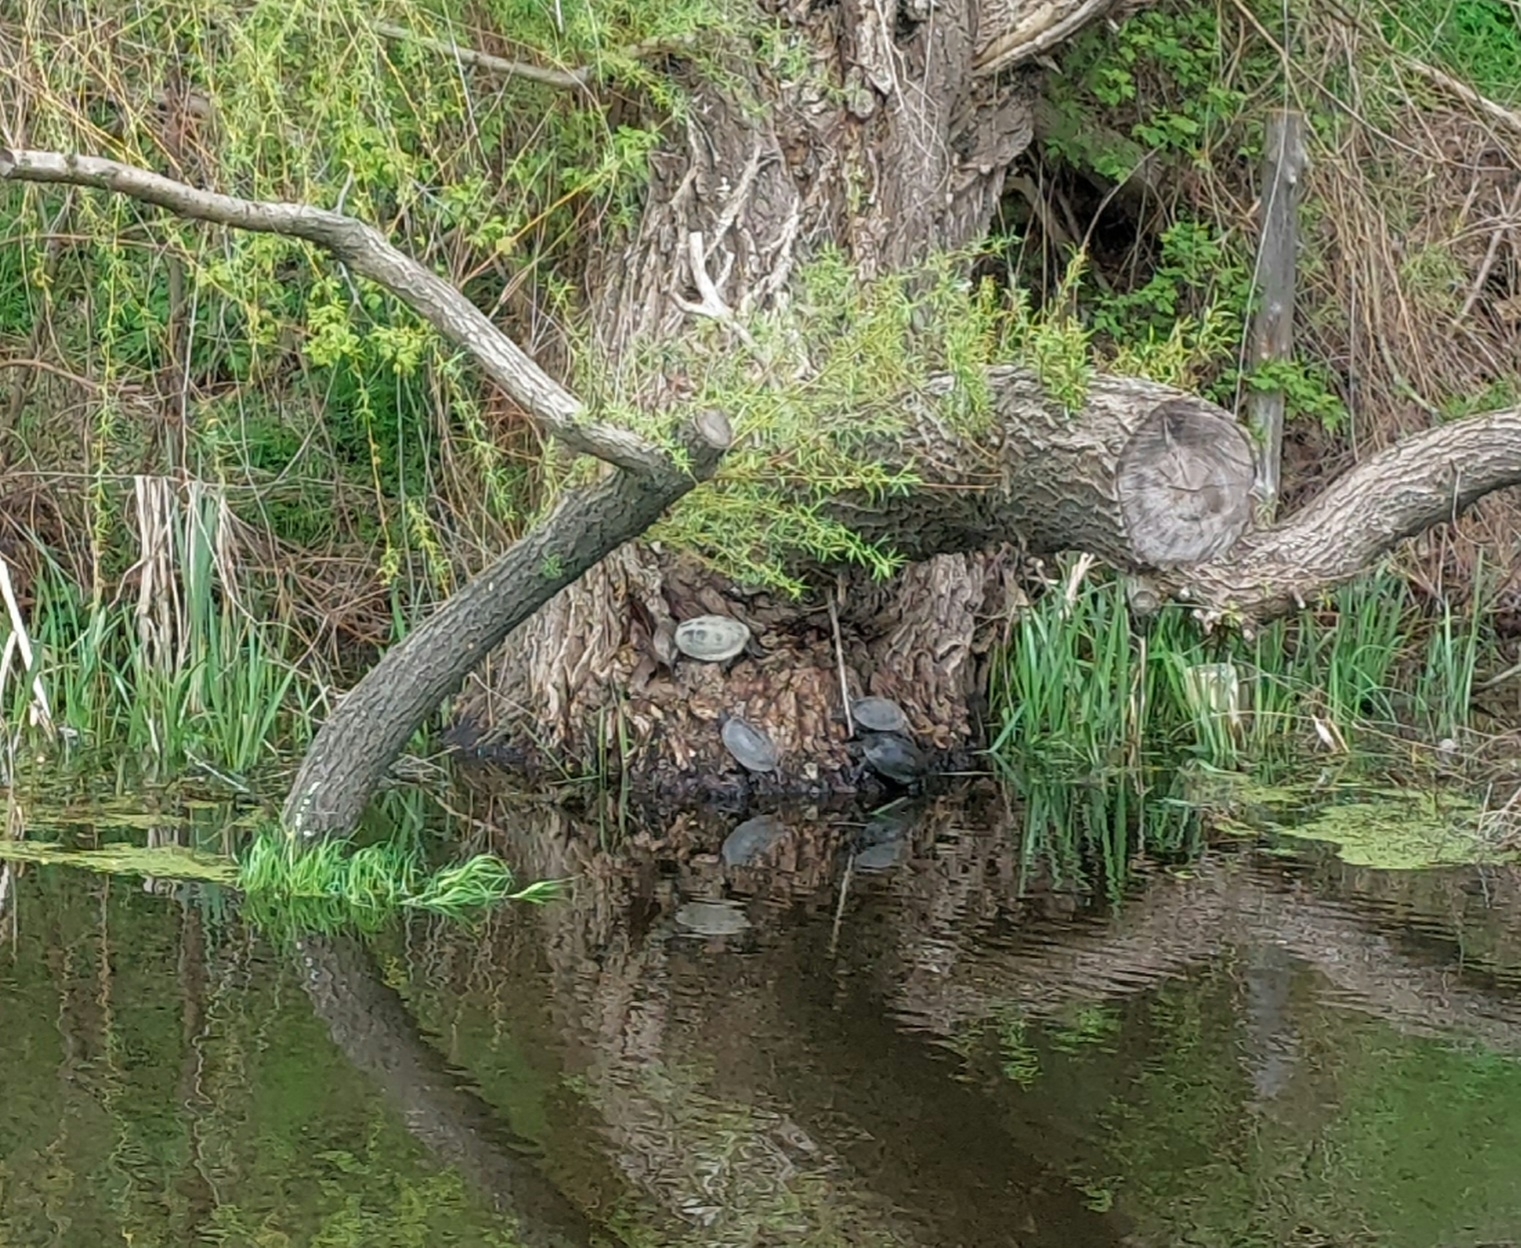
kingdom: Animalia
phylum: Chordata
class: Testudines
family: Emydidae
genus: Emys
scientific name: Emys orbicularis
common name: European pond turtle
